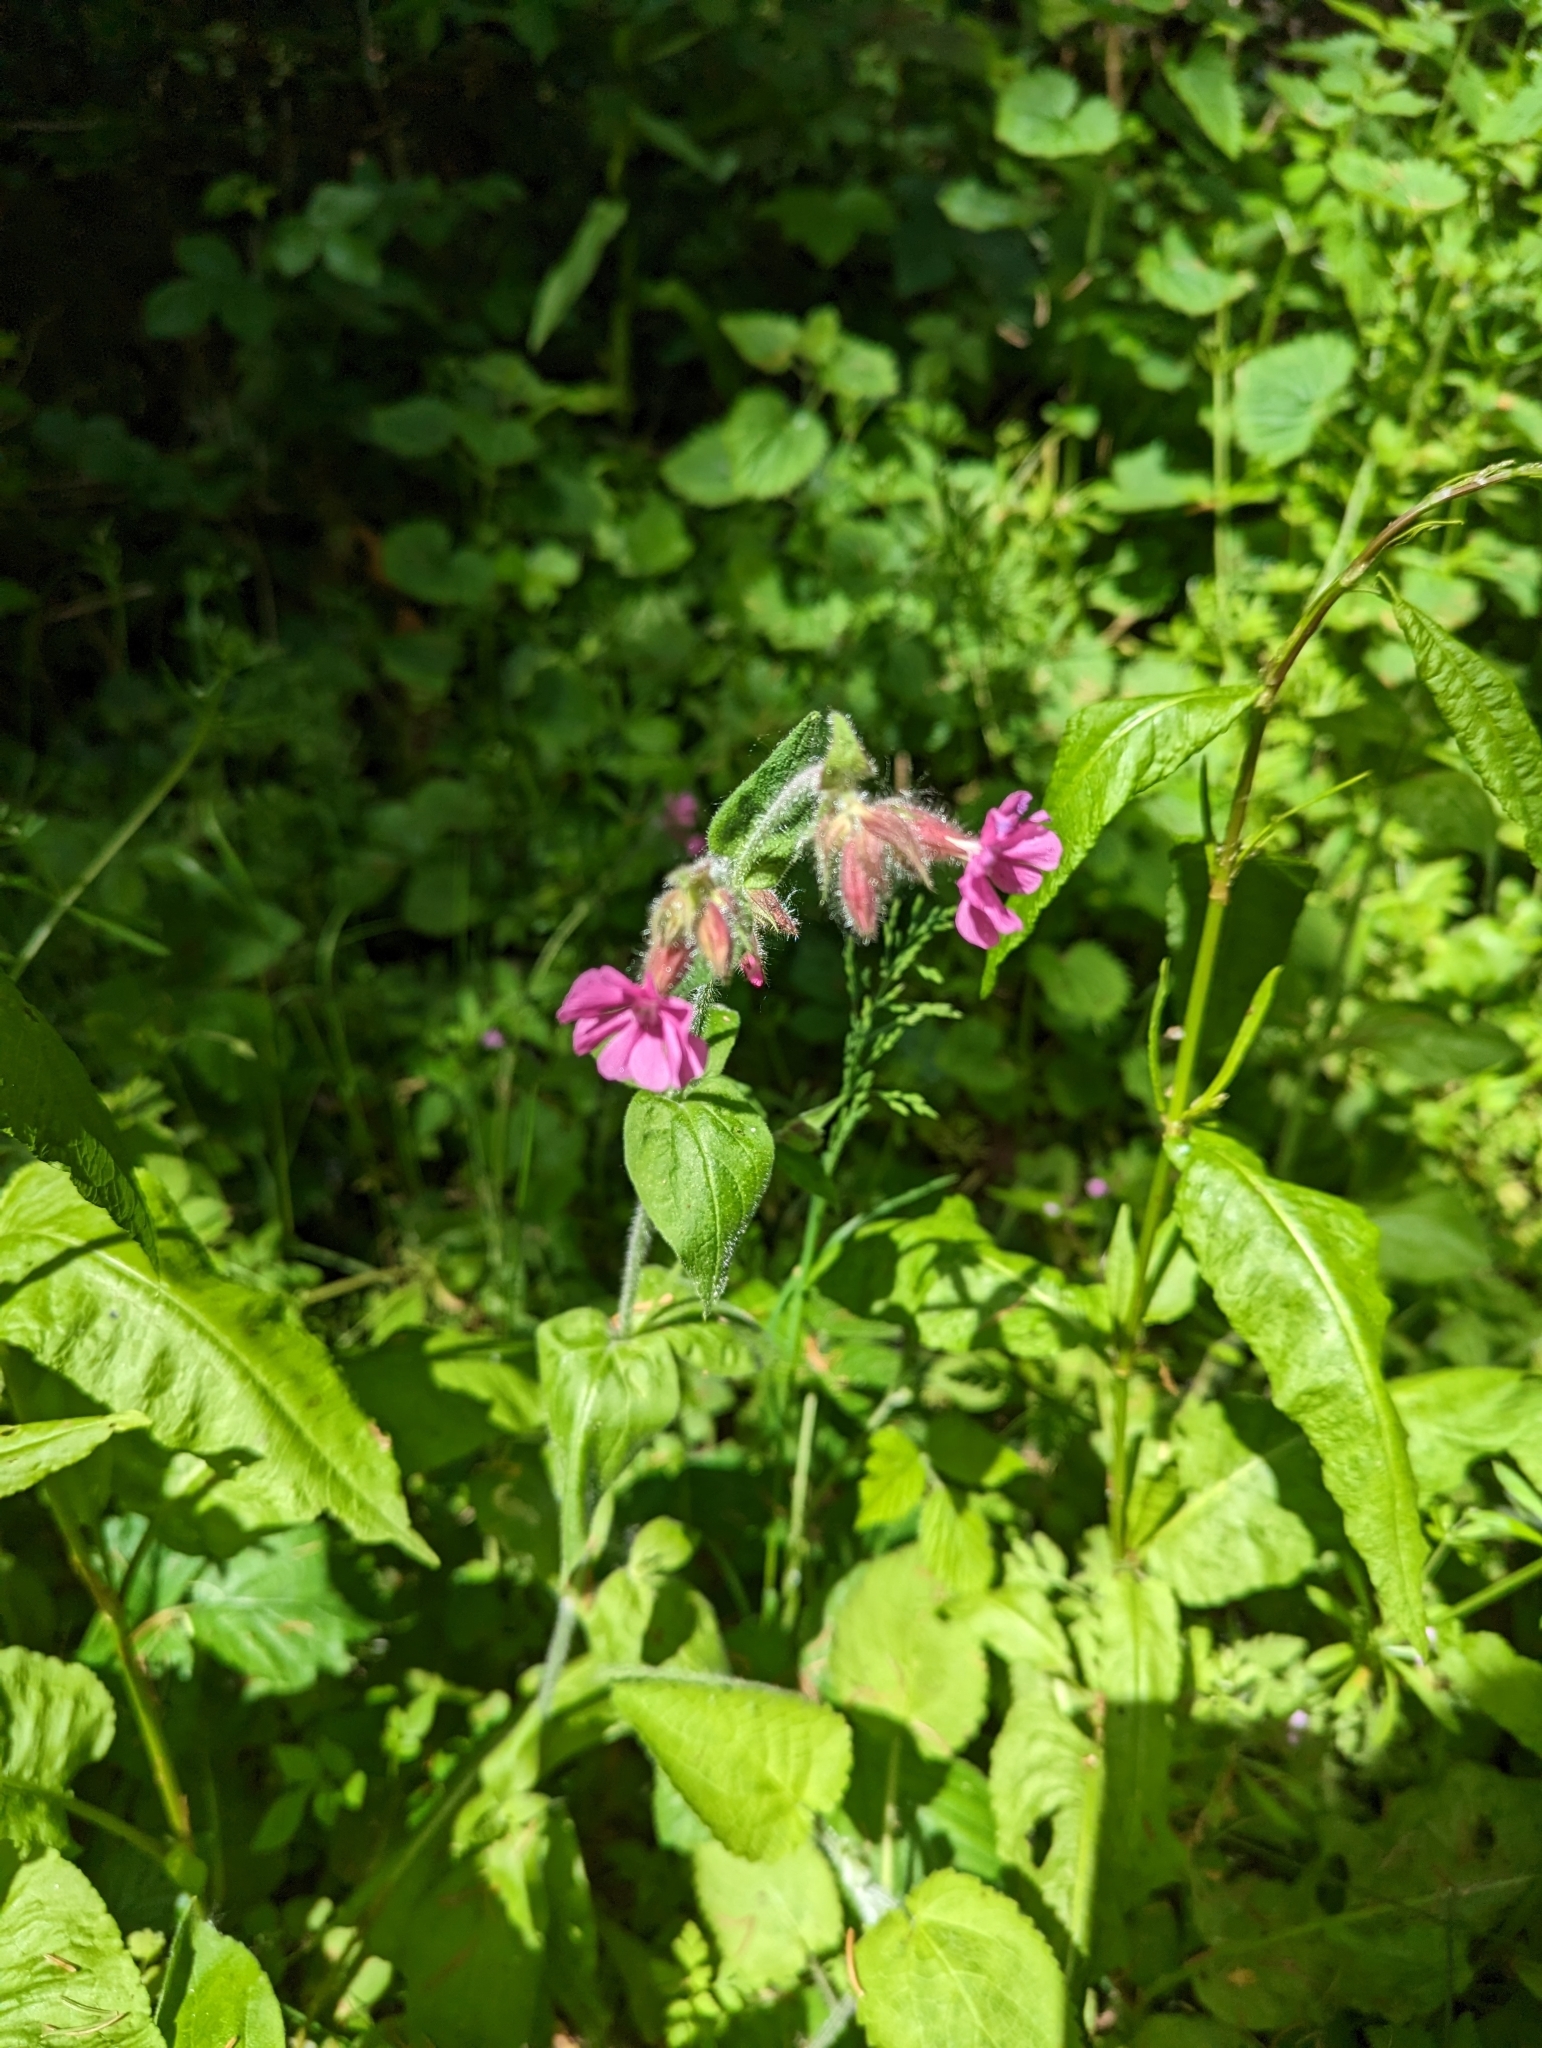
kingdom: Plantae
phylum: Tracheophyta
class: Magnoliopsida
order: Caryophyllales
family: Caryophyllaceae
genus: Silene
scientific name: Silene dioica
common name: Red campion
